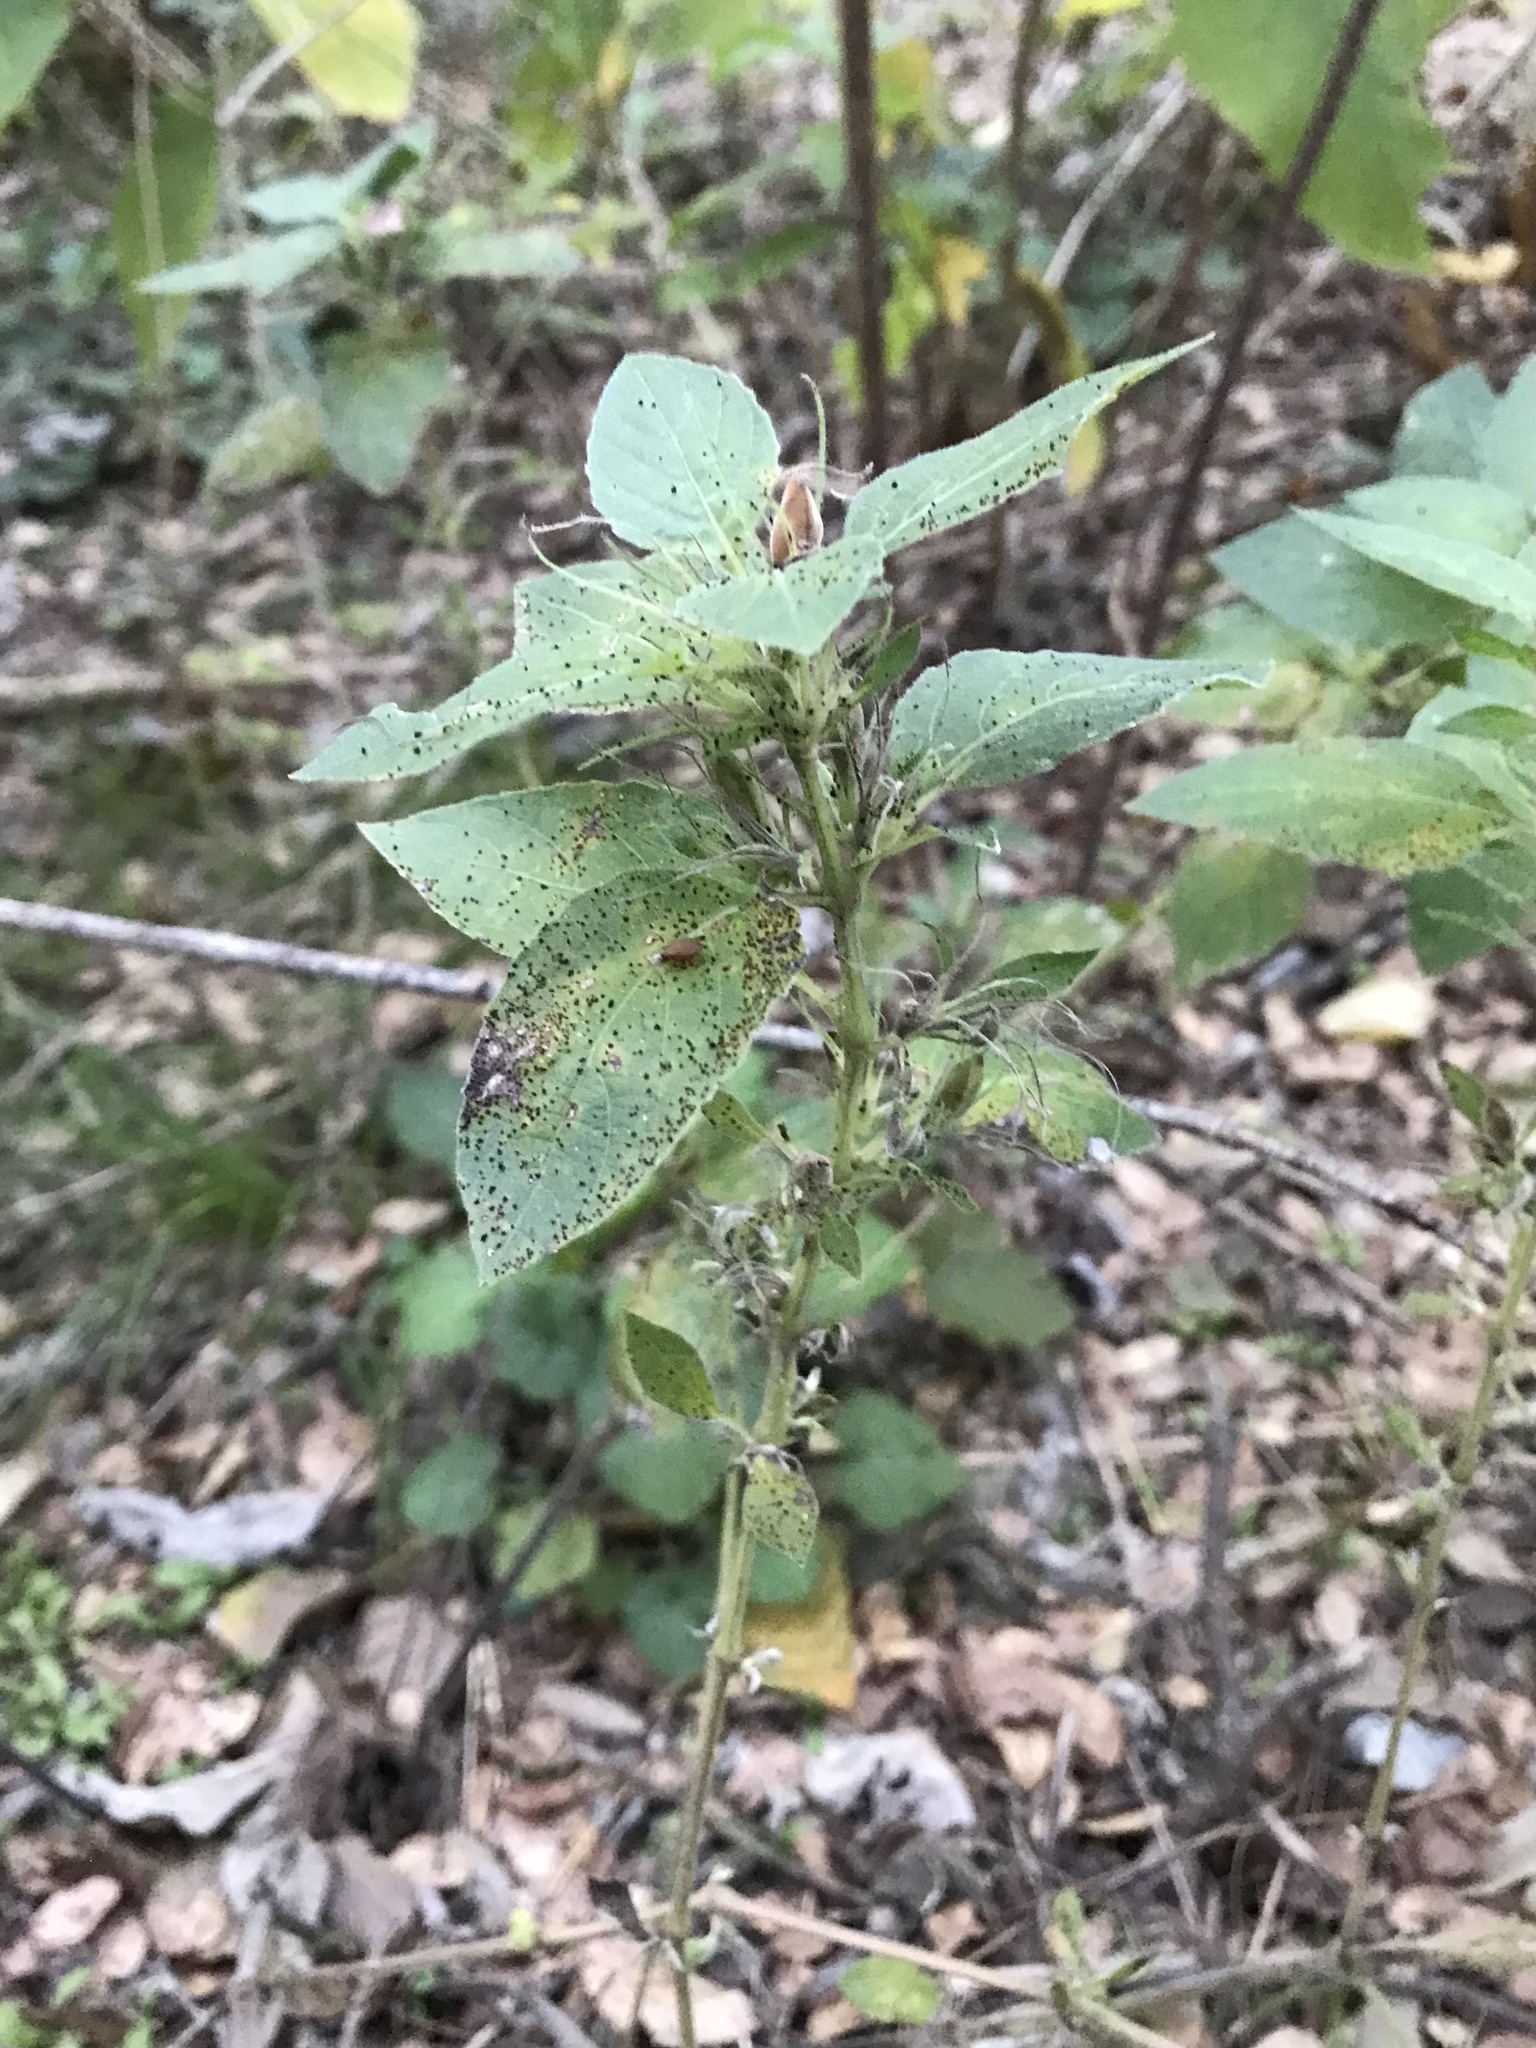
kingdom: Plantae
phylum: Tracheophyta
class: Magnoliopsida
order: Lamiales
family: Acanthaceae
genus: Ruellia
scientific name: Ruellia drummondiana
